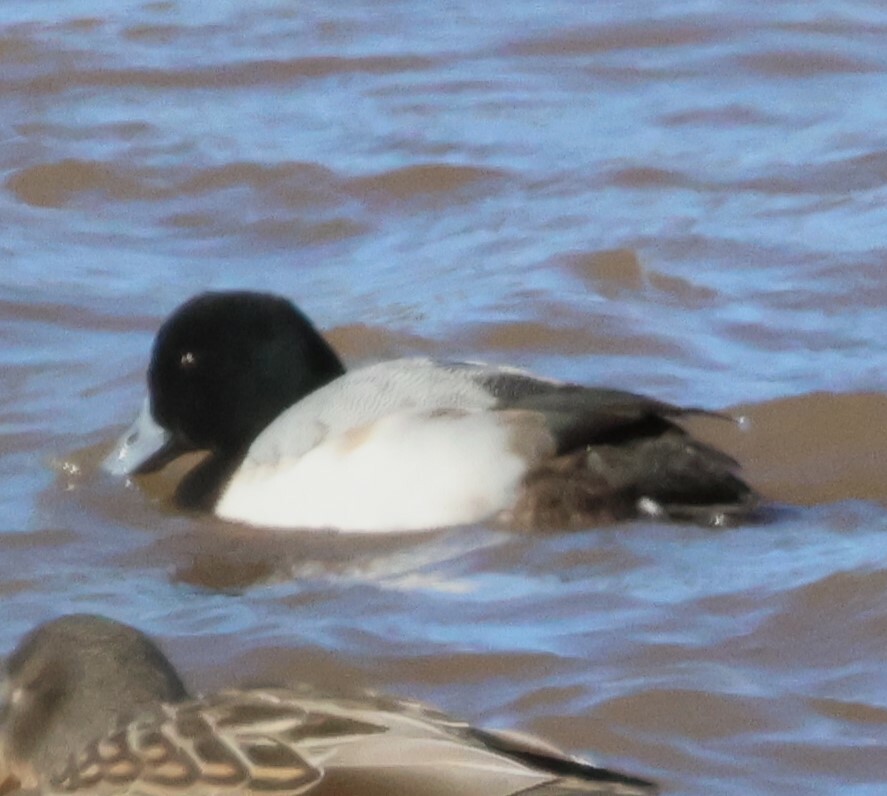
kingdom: Animalia
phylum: Chordata
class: Aves
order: Anseriformes
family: Anatidae
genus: Aythya
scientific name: Aythya marila
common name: Greater scaup
